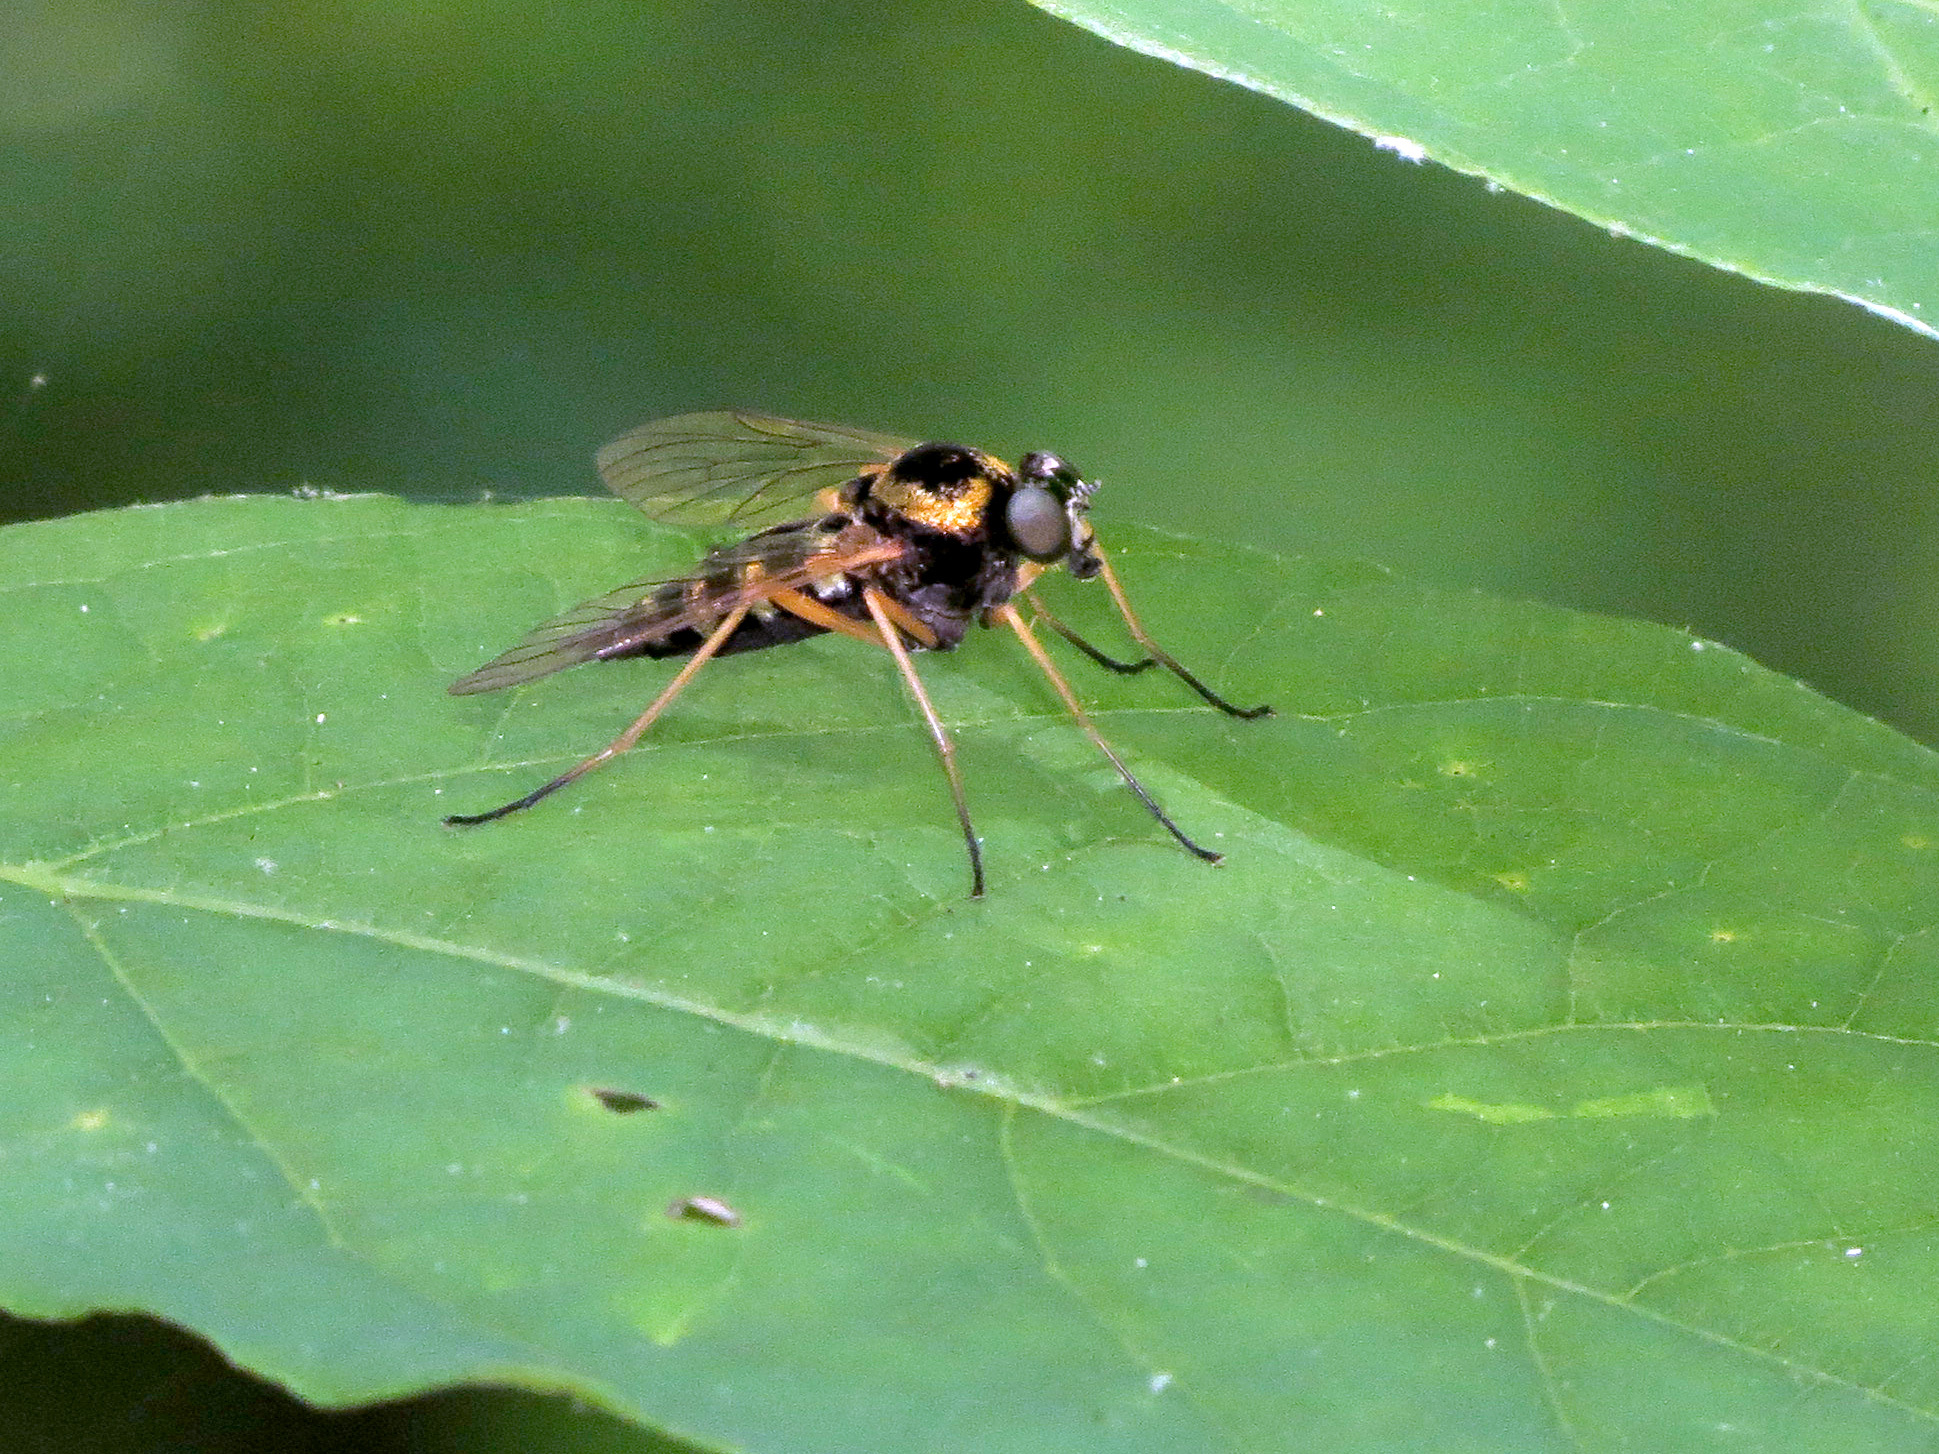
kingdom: Animalia
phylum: Arthropoda
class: Insecta
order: Diptera
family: Rhagionidae
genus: Chrysopilus
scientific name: Chrysopilus ornatus
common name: Ornate snipe fly
